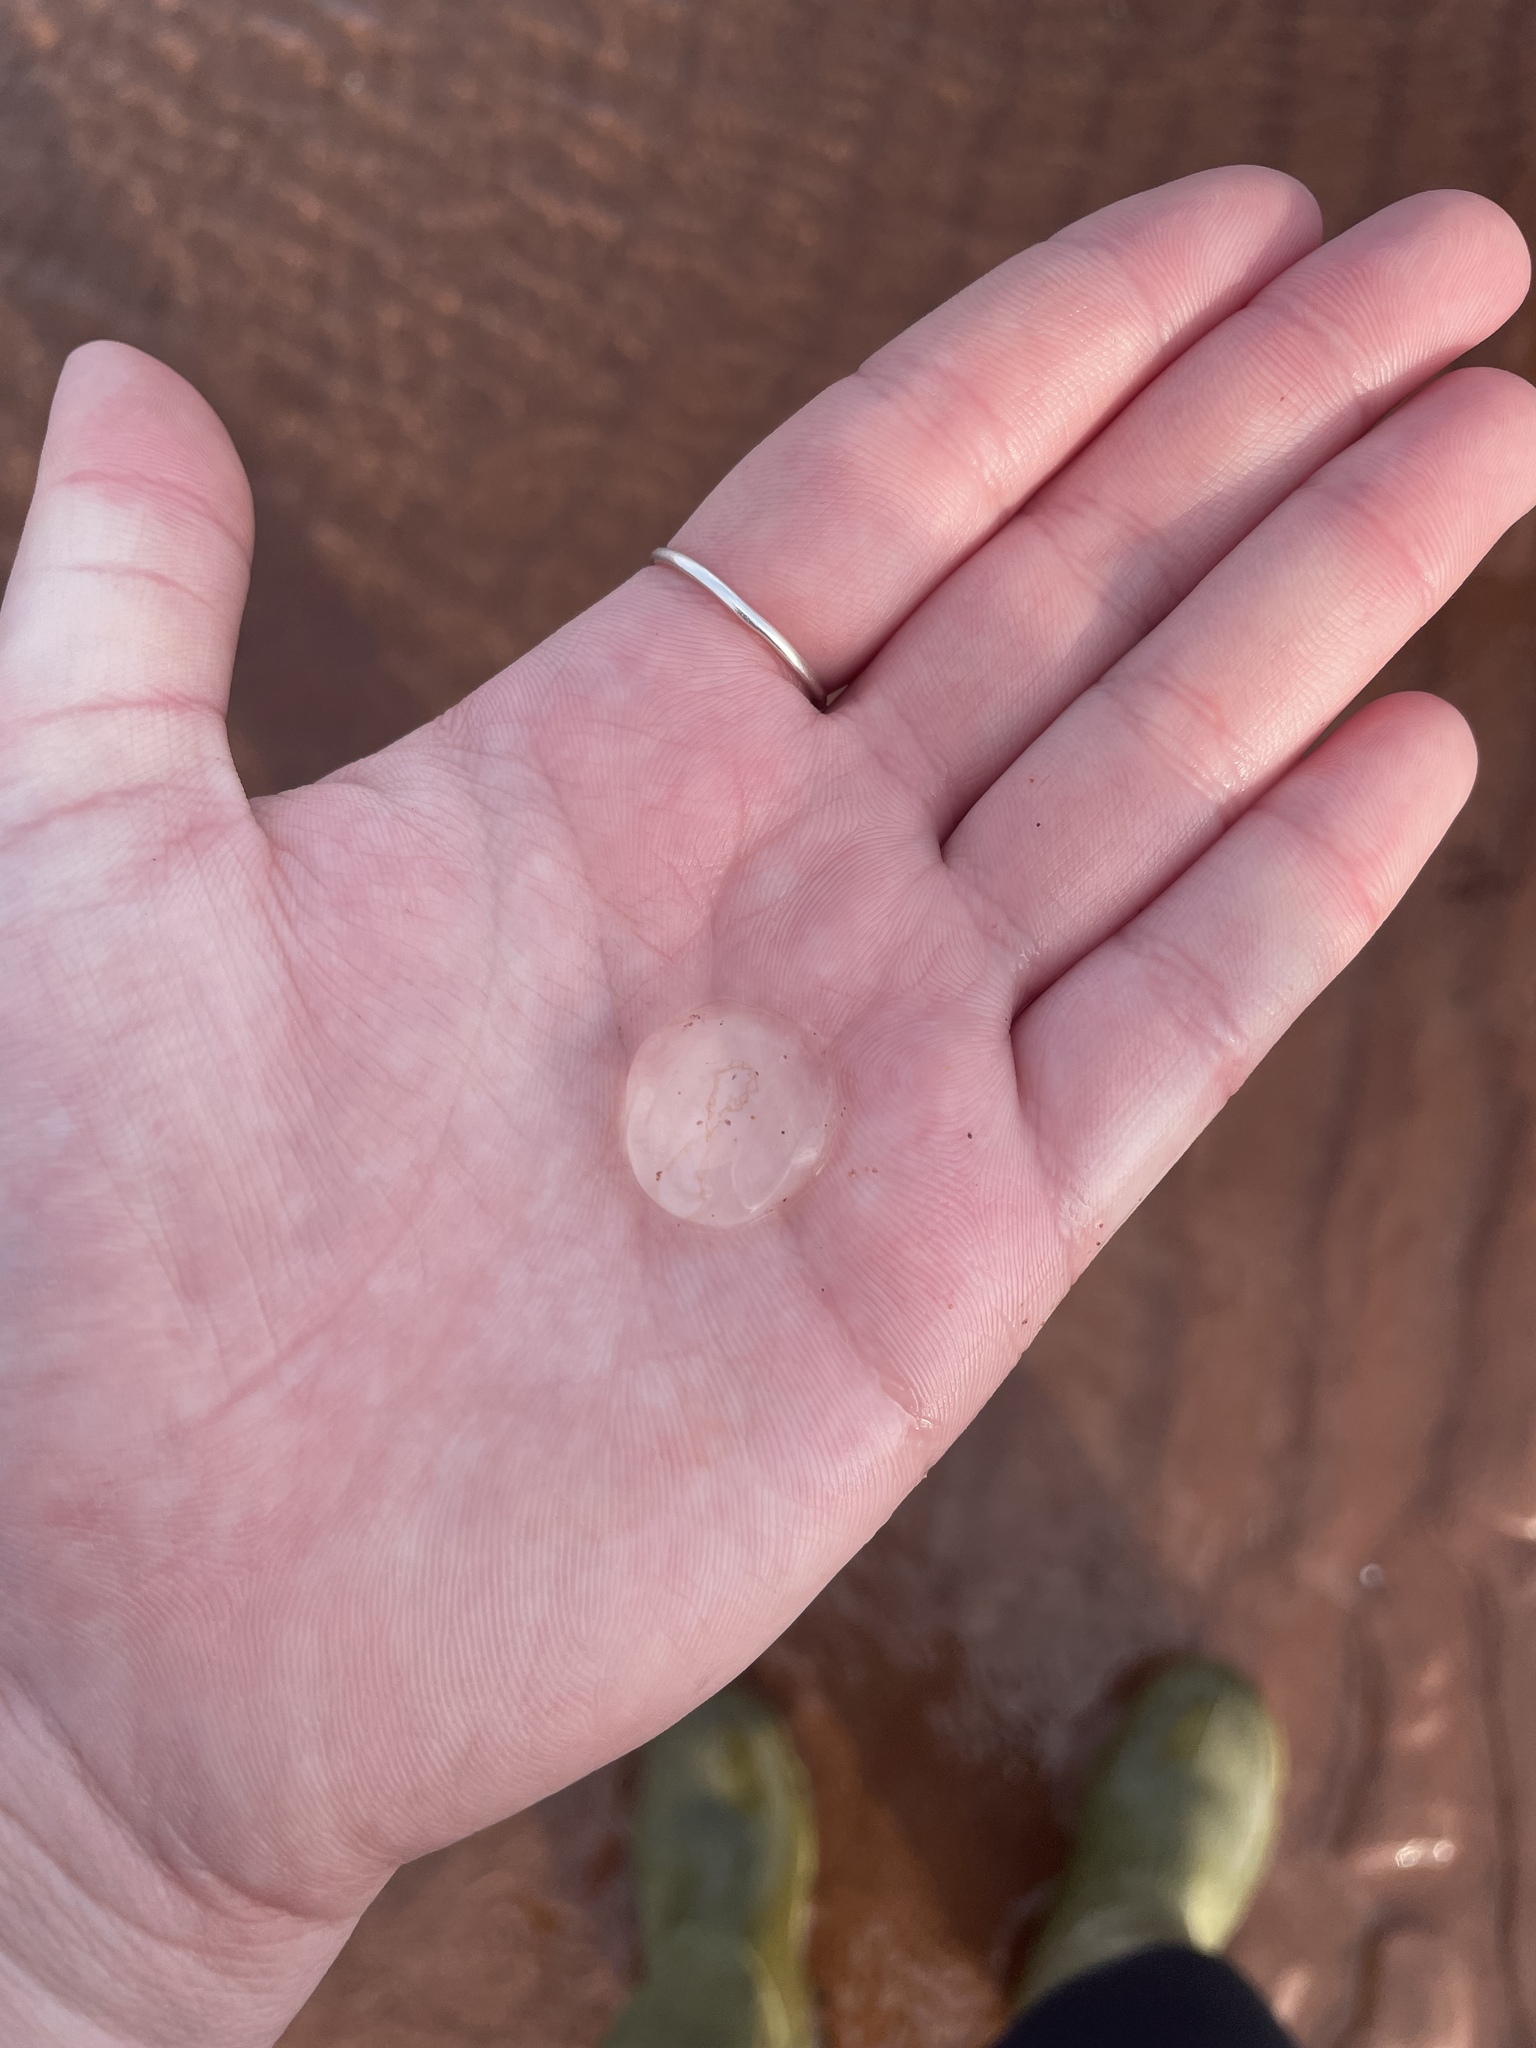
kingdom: Animalia
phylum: Ctenophora
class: Tentaculata
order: Cydippida
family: Pleurobrachiidae
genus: Pleurobrachia
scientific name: Pleurobrachia pileus
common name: Sea gooseberry
